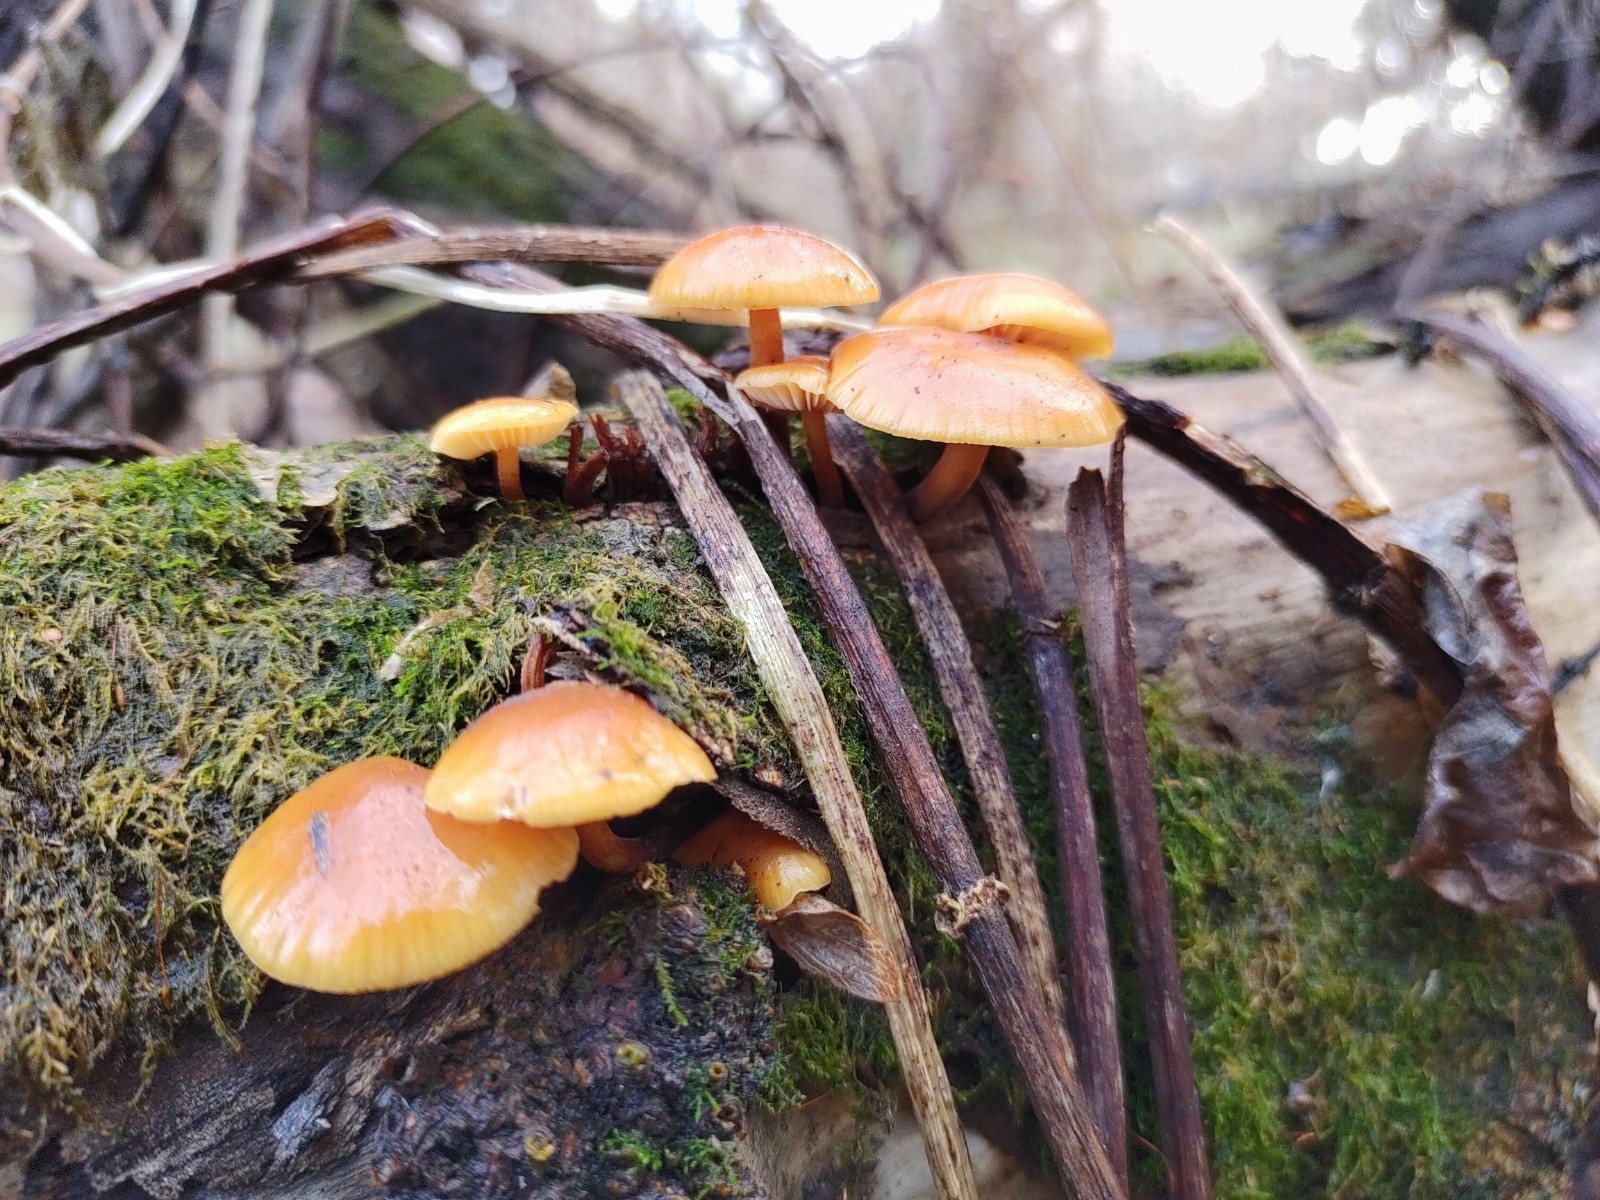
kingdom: Fungi
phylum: Basidiomycota
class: Agaricomycetes
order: Agaricales
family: Physalacriaceae
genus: Flammulina
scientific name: Flammulina
